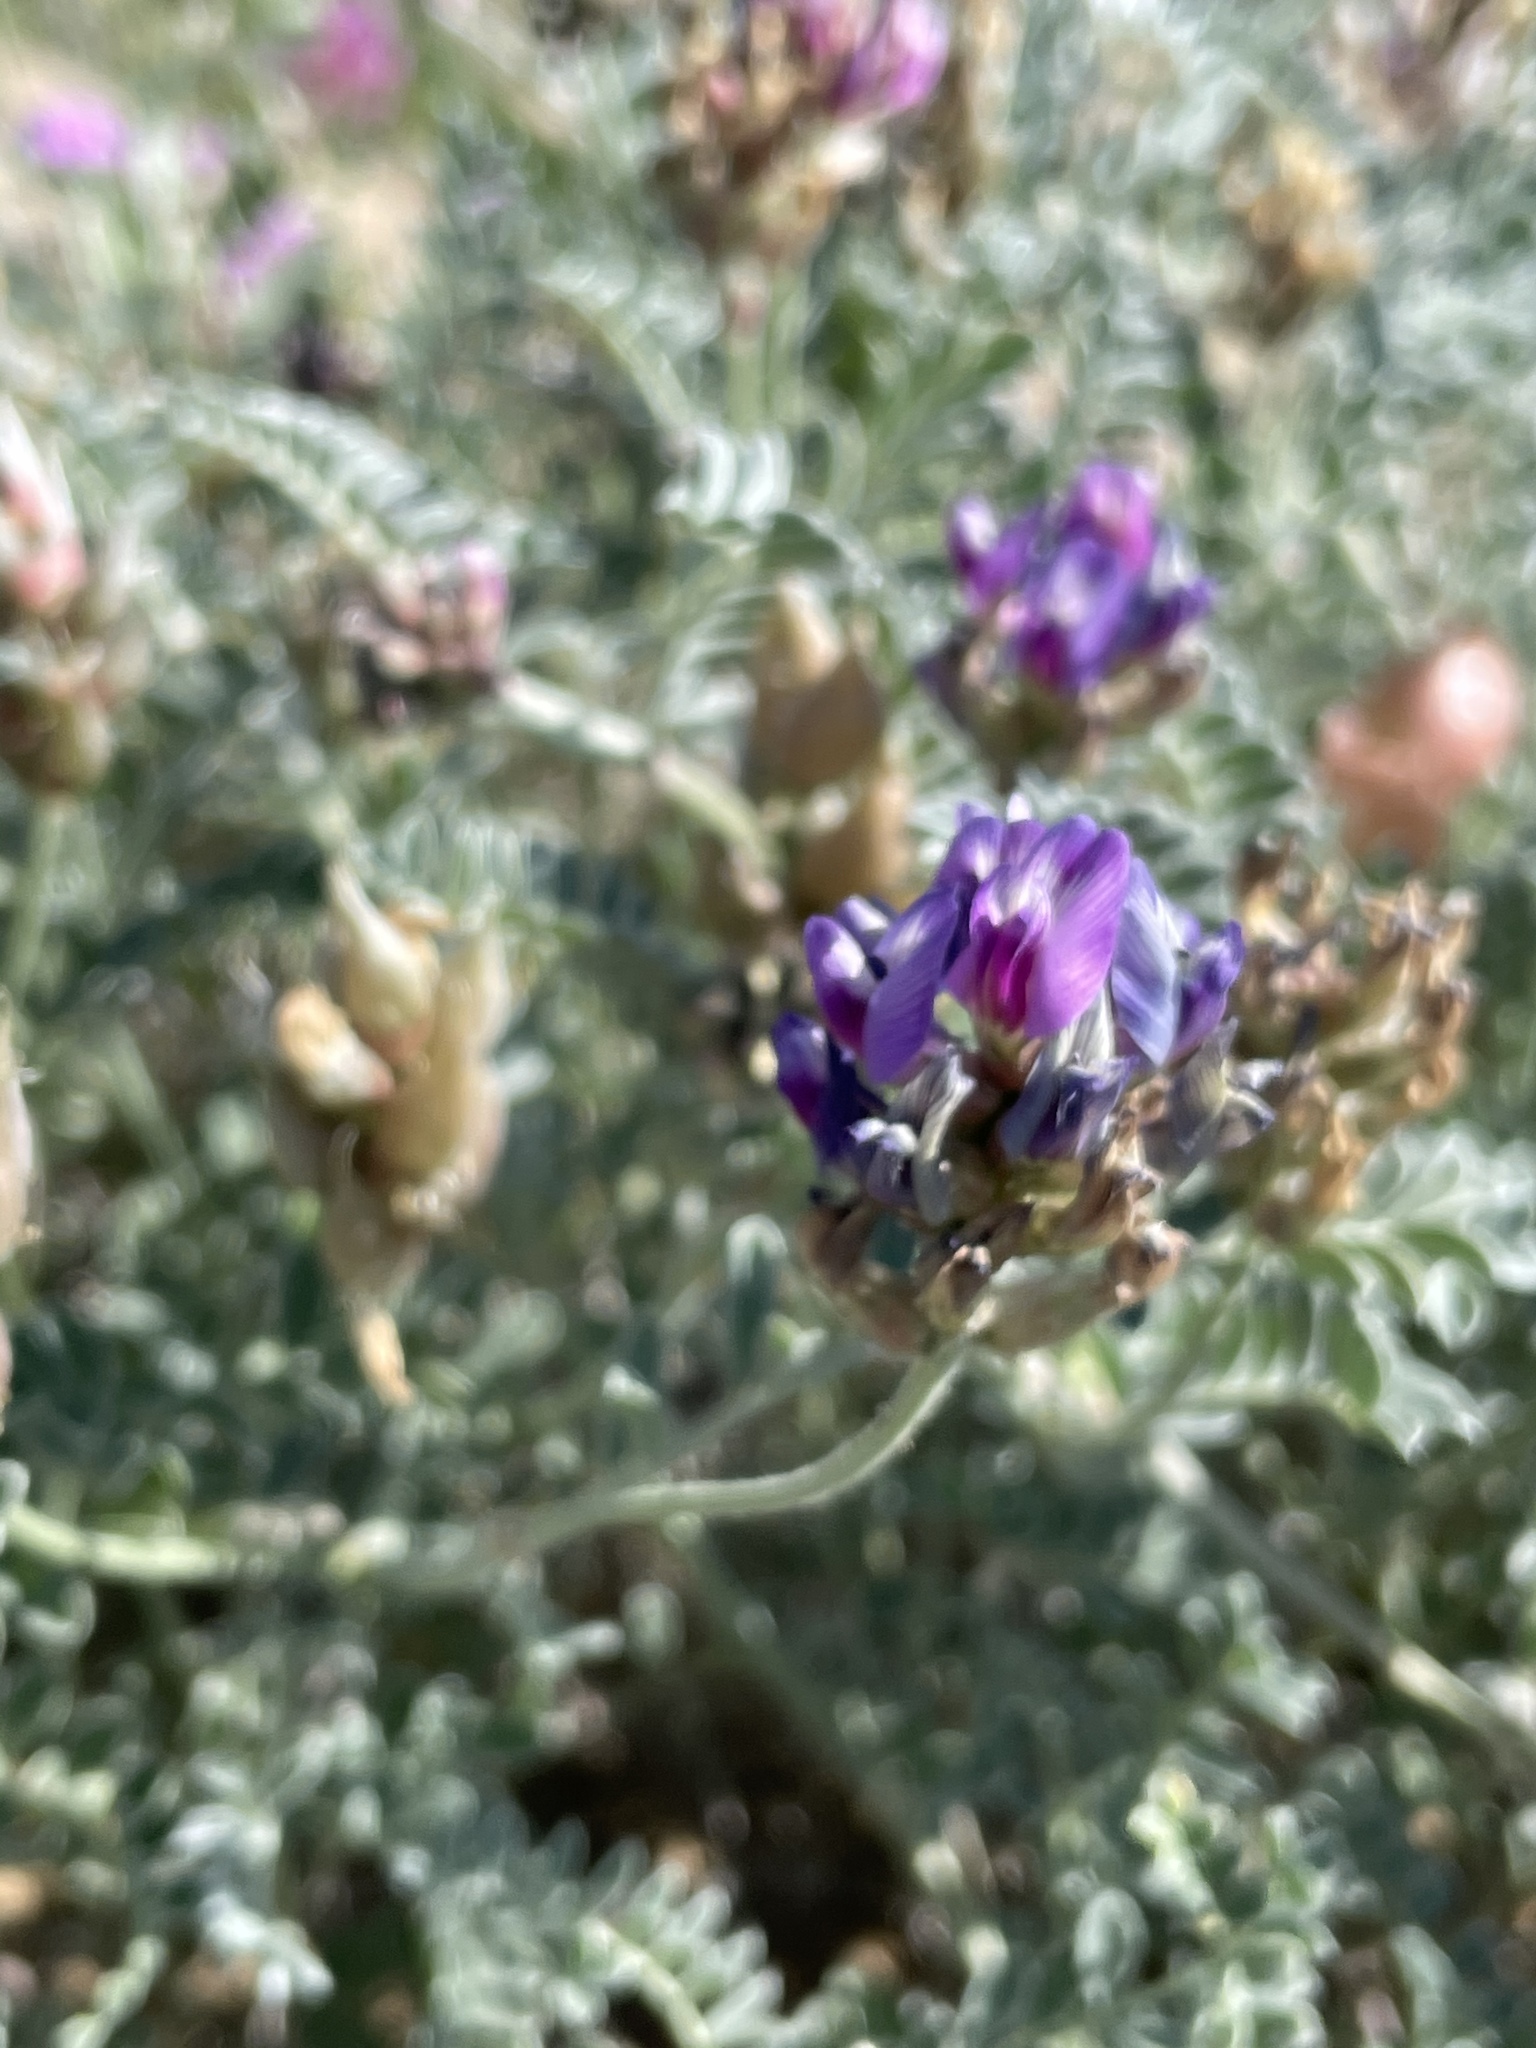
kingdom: Plantae
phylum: Tracheophyta
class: Magnoliopsida
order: Fabales
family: Fabaceae
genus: Astragalus
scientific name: Astragalus harbisonii
